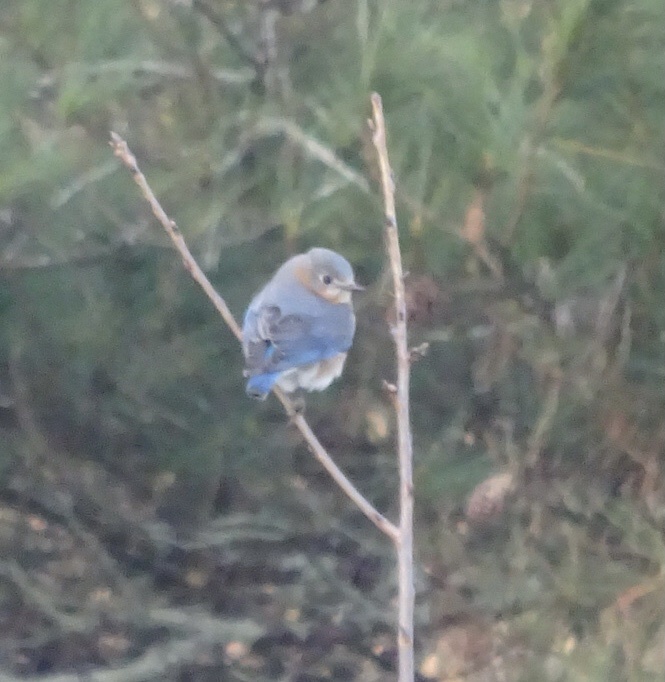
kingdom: Animalia
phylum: Chordata
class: Aves
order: Passeriformes
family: Turdidae
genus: Sialia
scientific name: Sialia sialis
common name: Eastern bluebird
